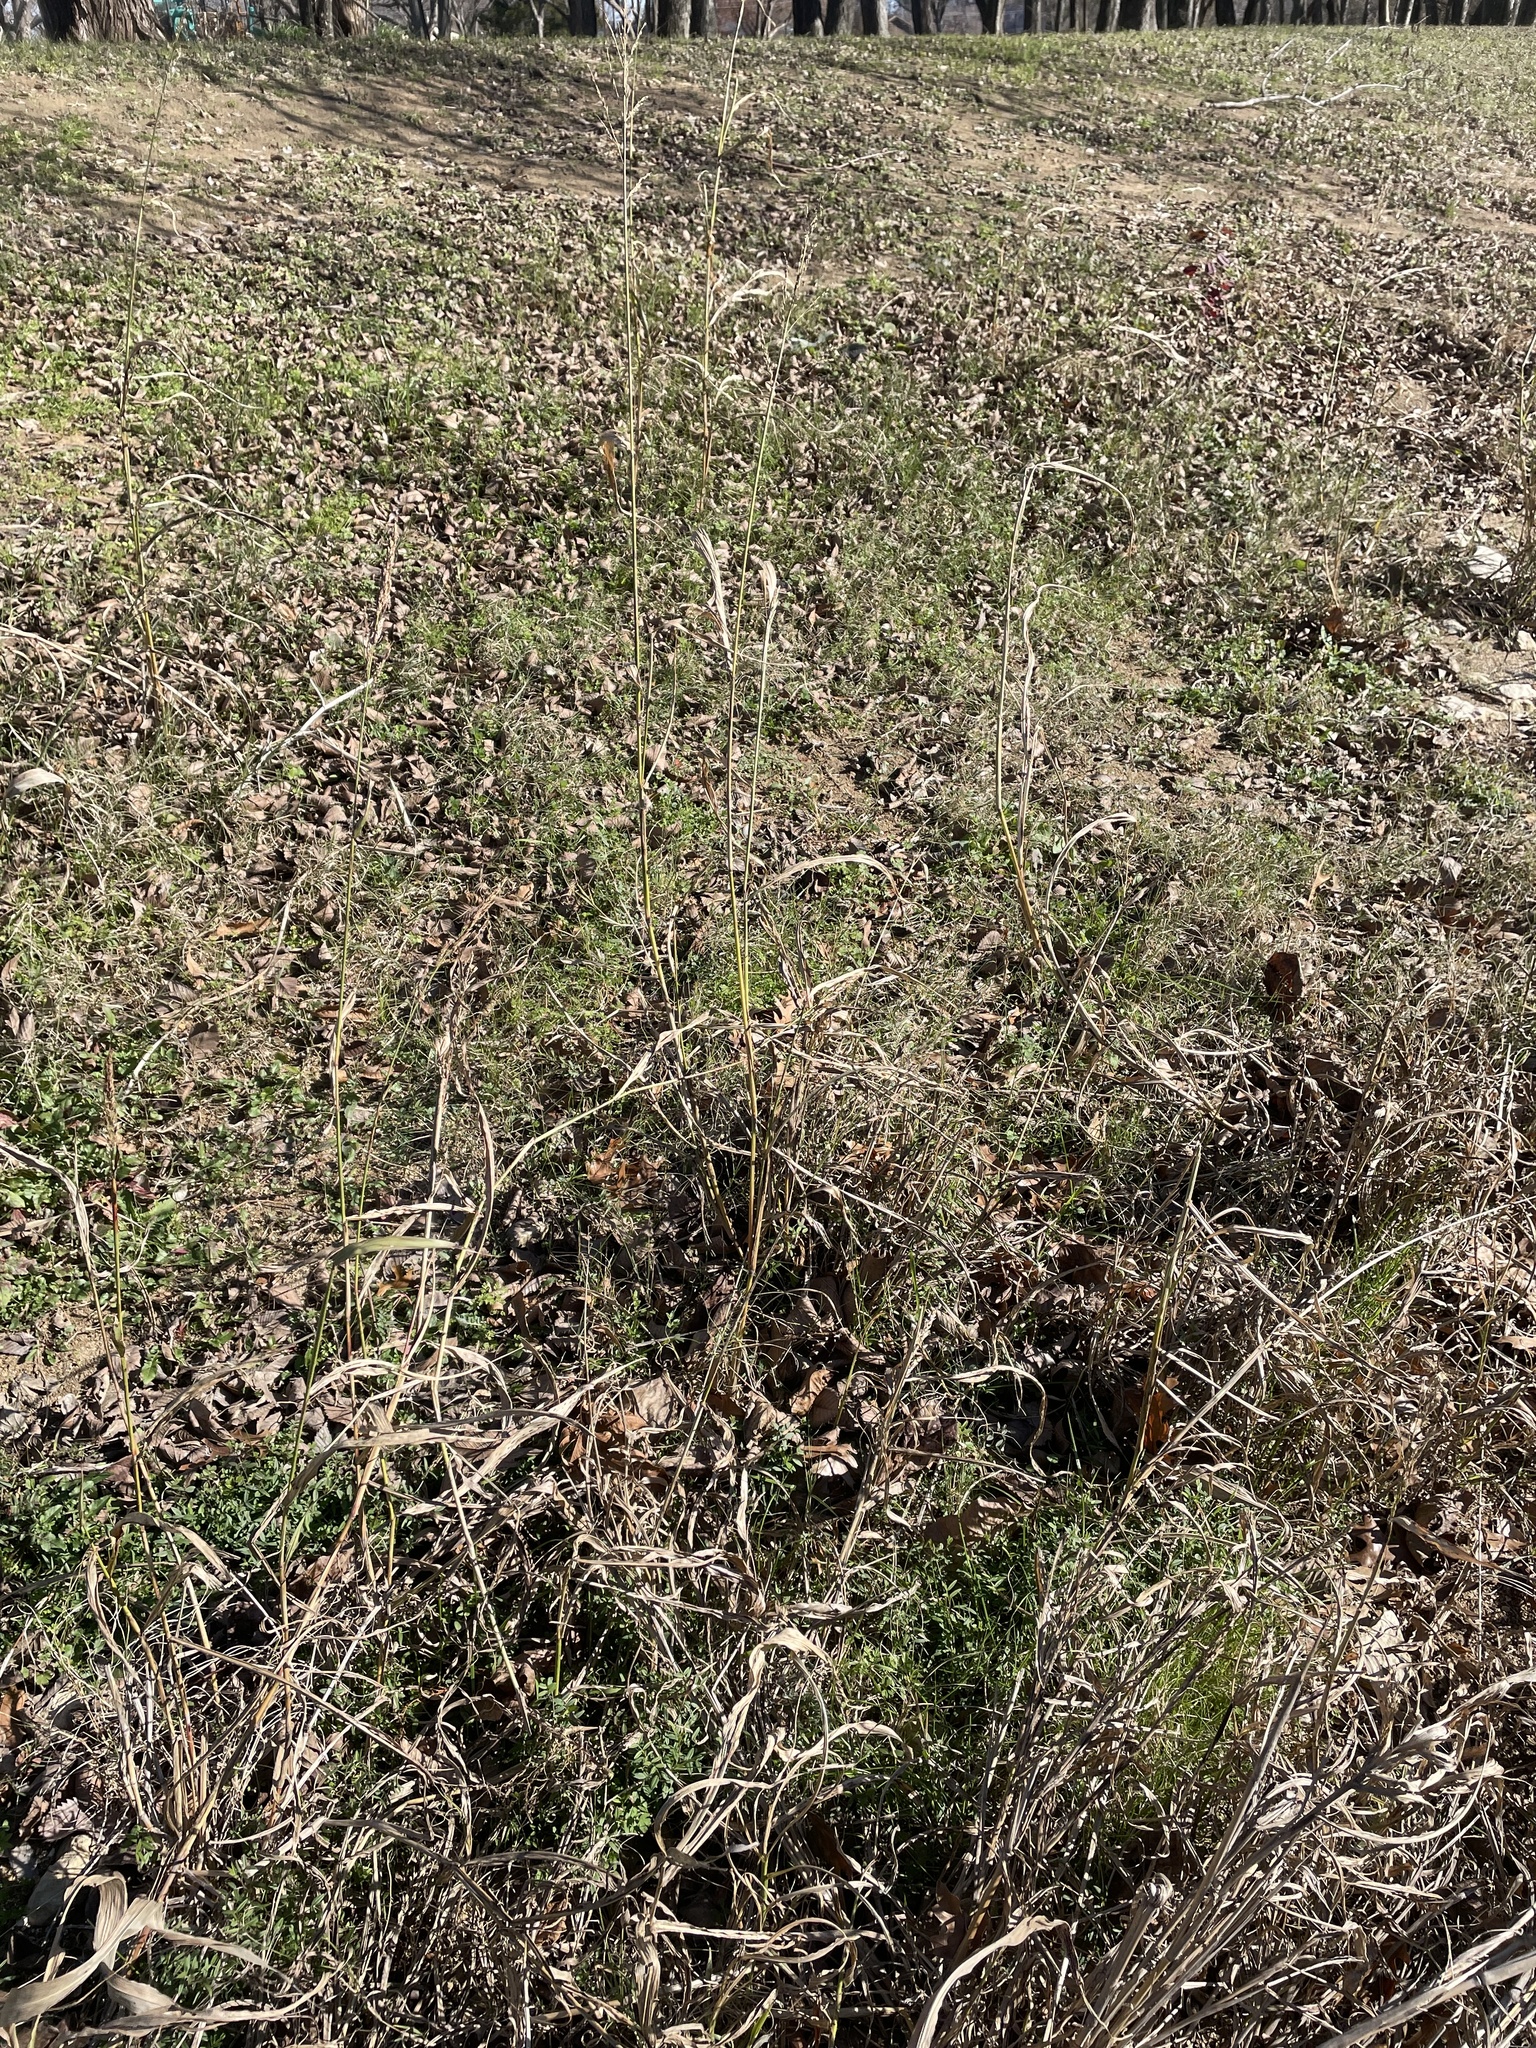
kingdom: Plantae
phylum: Tracheophyta
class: Liliopsida
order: Poales
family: Poaceae
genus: Sorghum
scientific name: Sorghum halepense
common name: Johnson-grass
